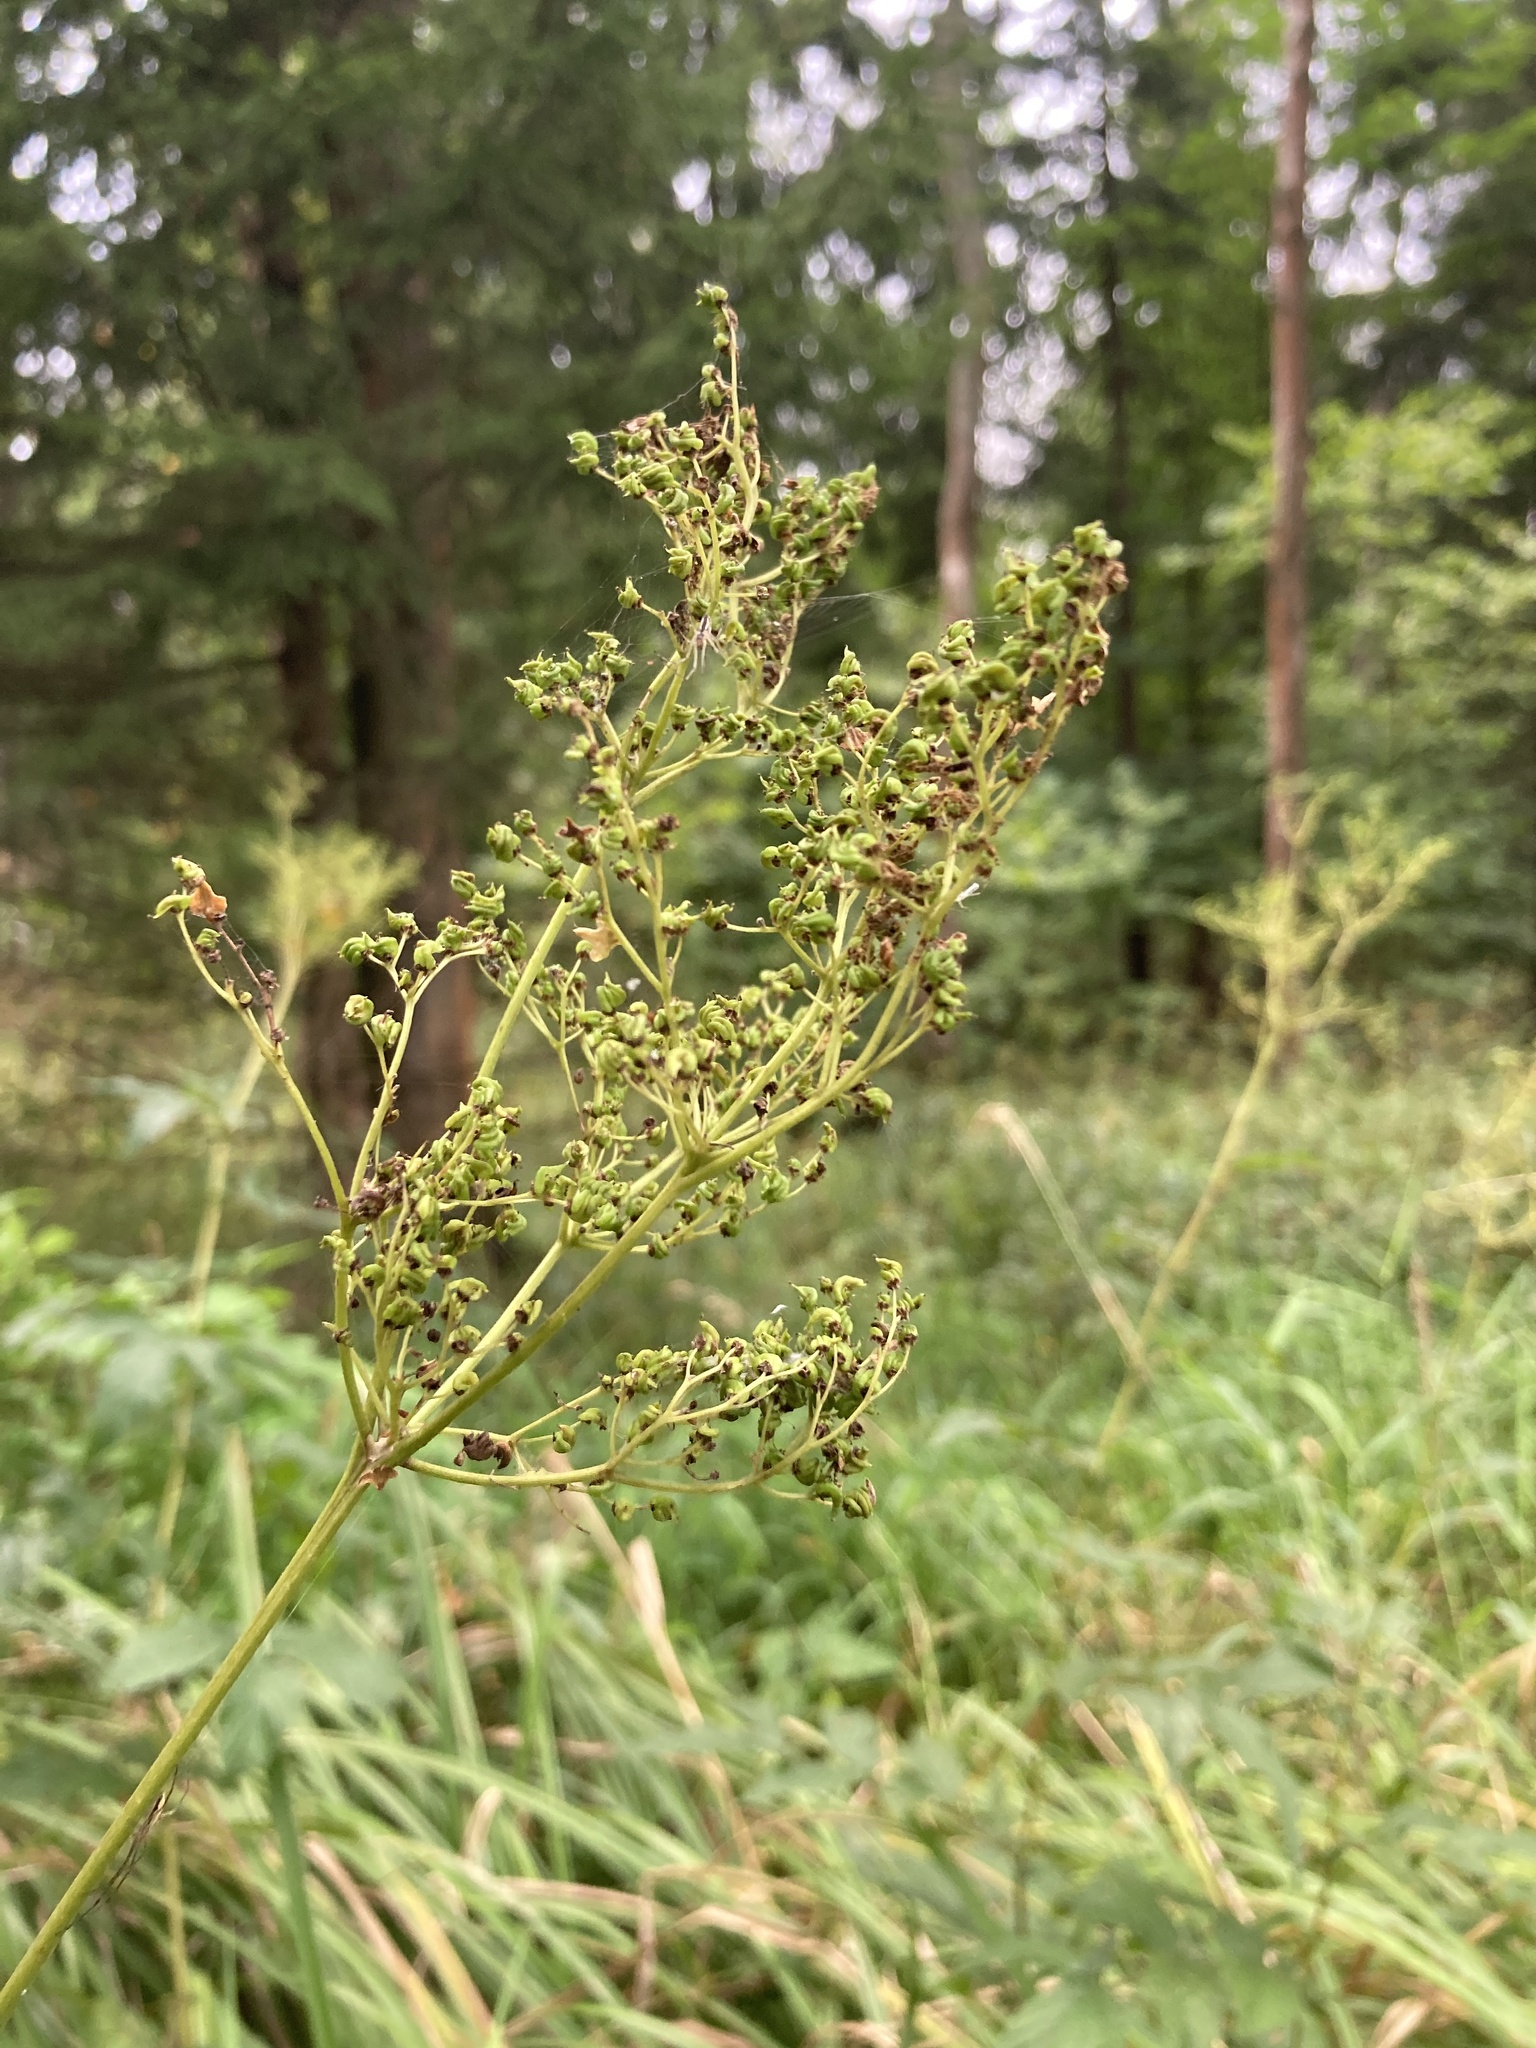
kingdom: Plantae
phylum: Tracheophyta
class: Magnoliopsida
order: Rosales
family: Rosaceae
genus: Filipendula
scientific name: Filipendula ulmaria
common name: Meadowsweet
